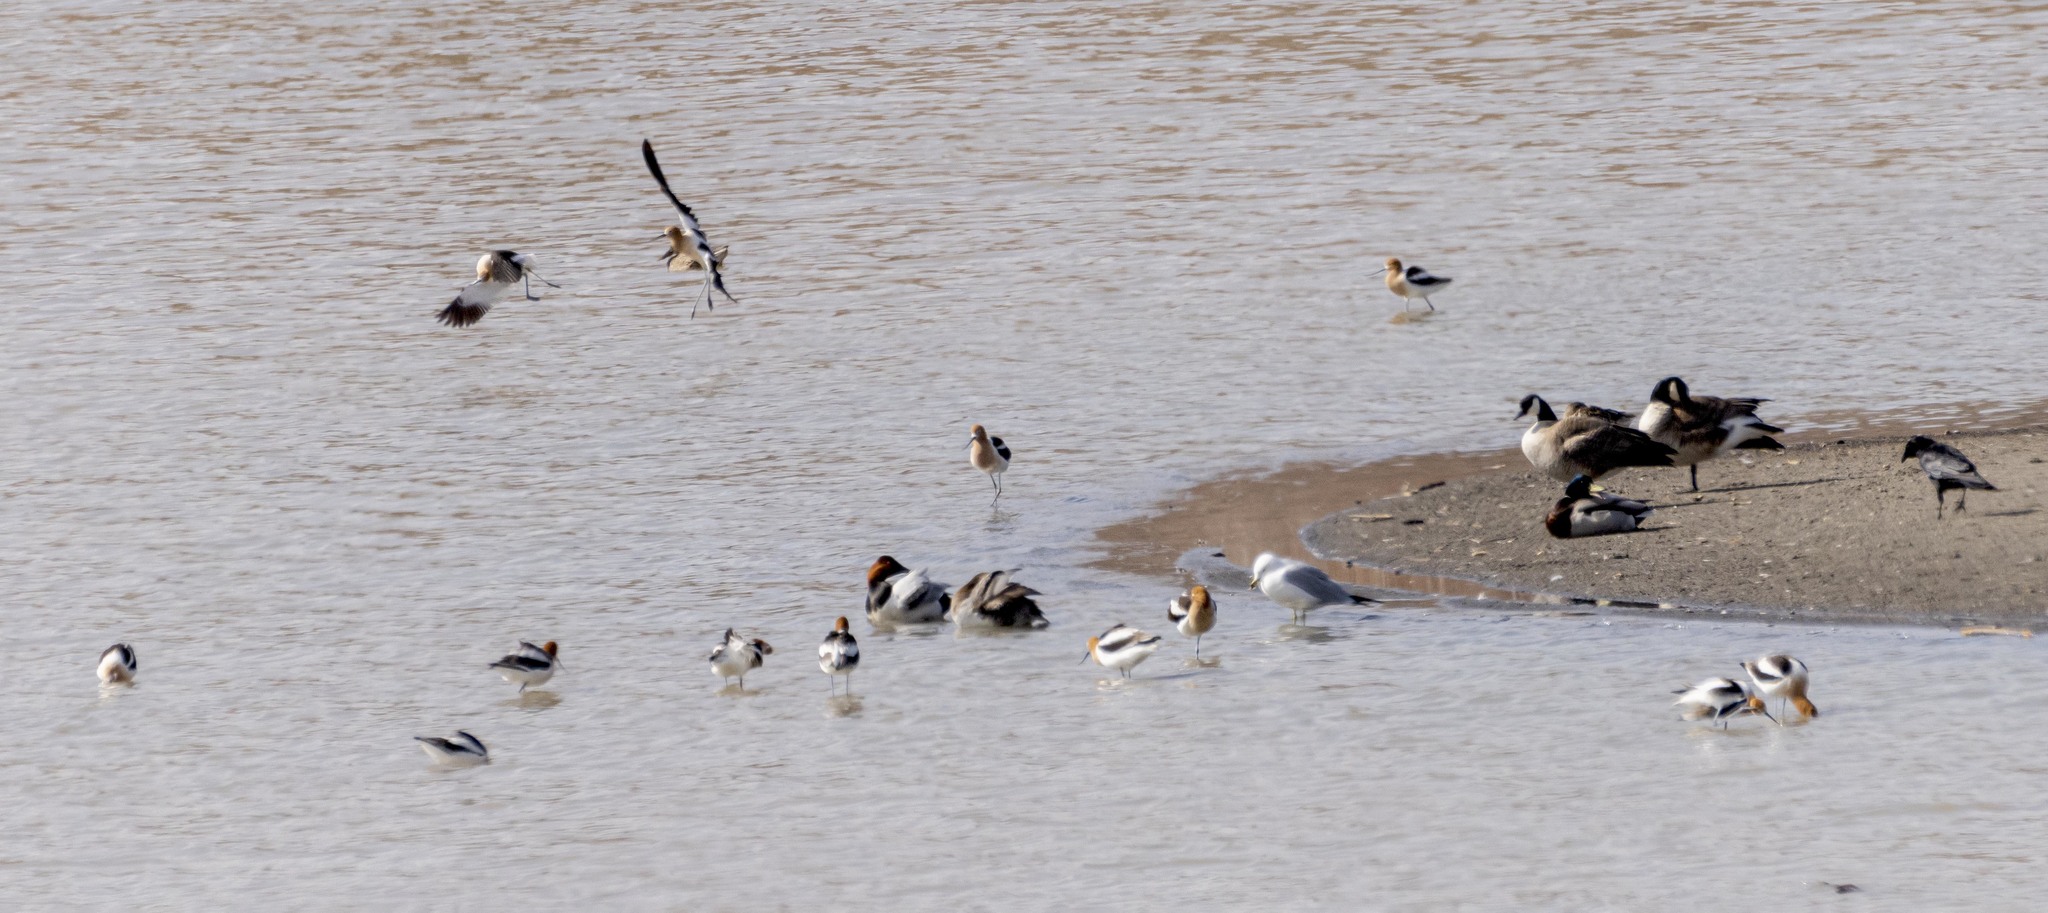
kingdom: Animalia
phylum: Chordata
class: Aves
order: Charadriiformes
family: Recurvirostridae
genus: Recurvirostra
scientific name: Recurvirostra americana
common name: American avocet
